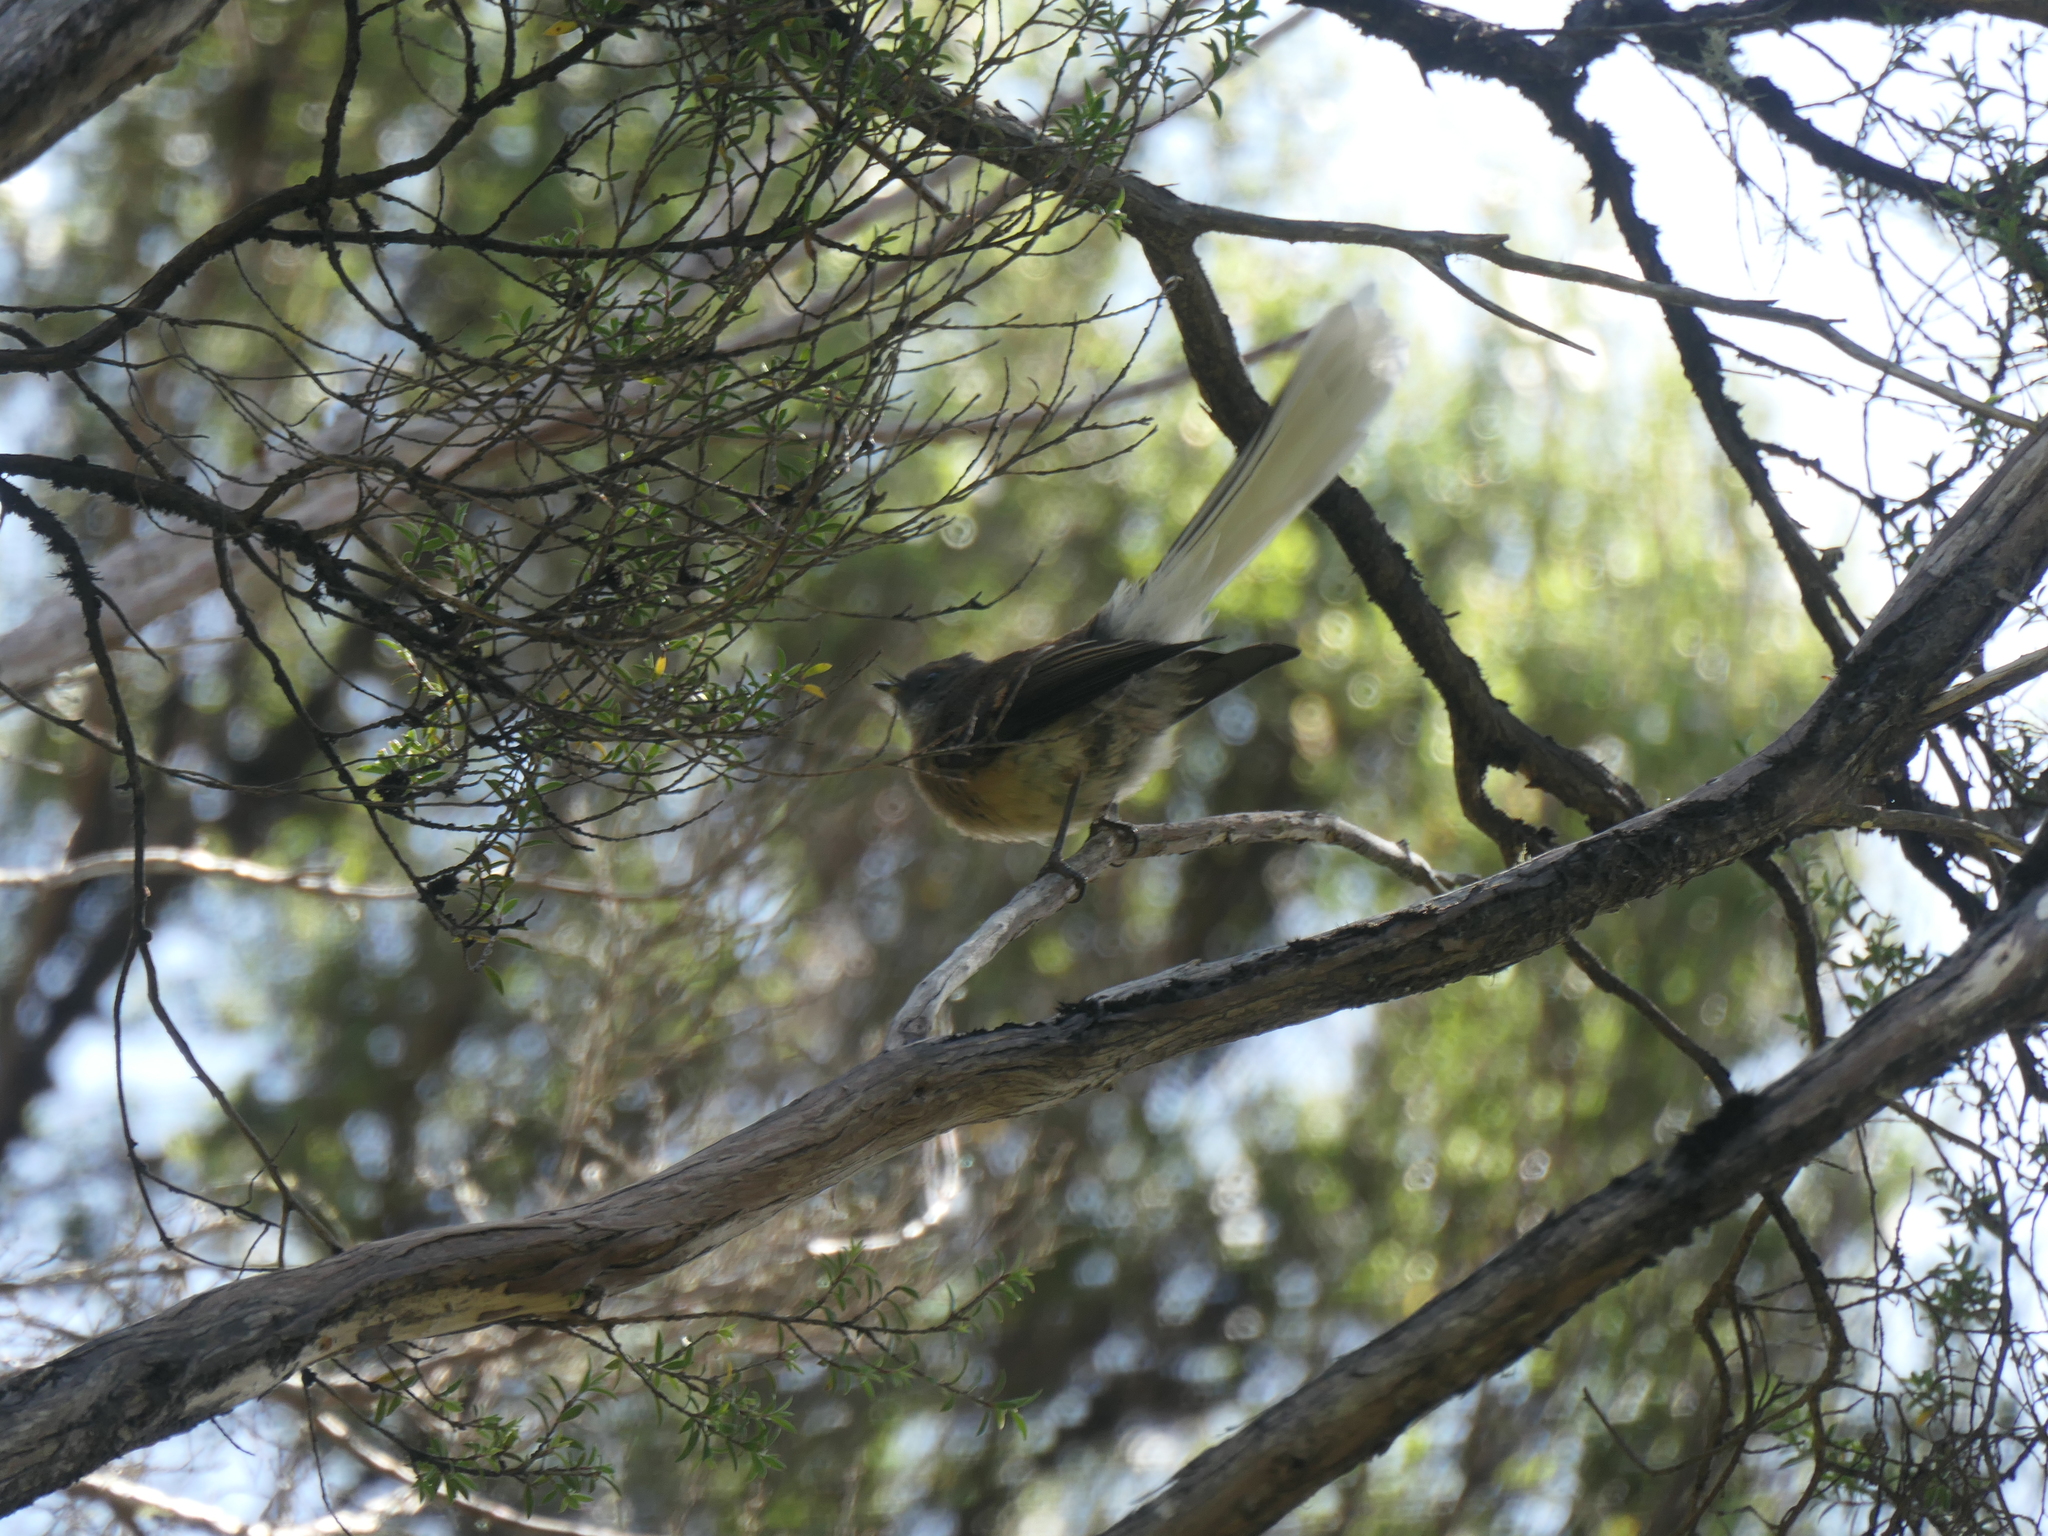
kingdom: Animalia
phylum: Chordata
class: Aves
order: Passeriformes
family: Rhipiduridae
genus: Rhipidura
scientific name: Rhipidura fuliginosa
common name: New zealand fantail
